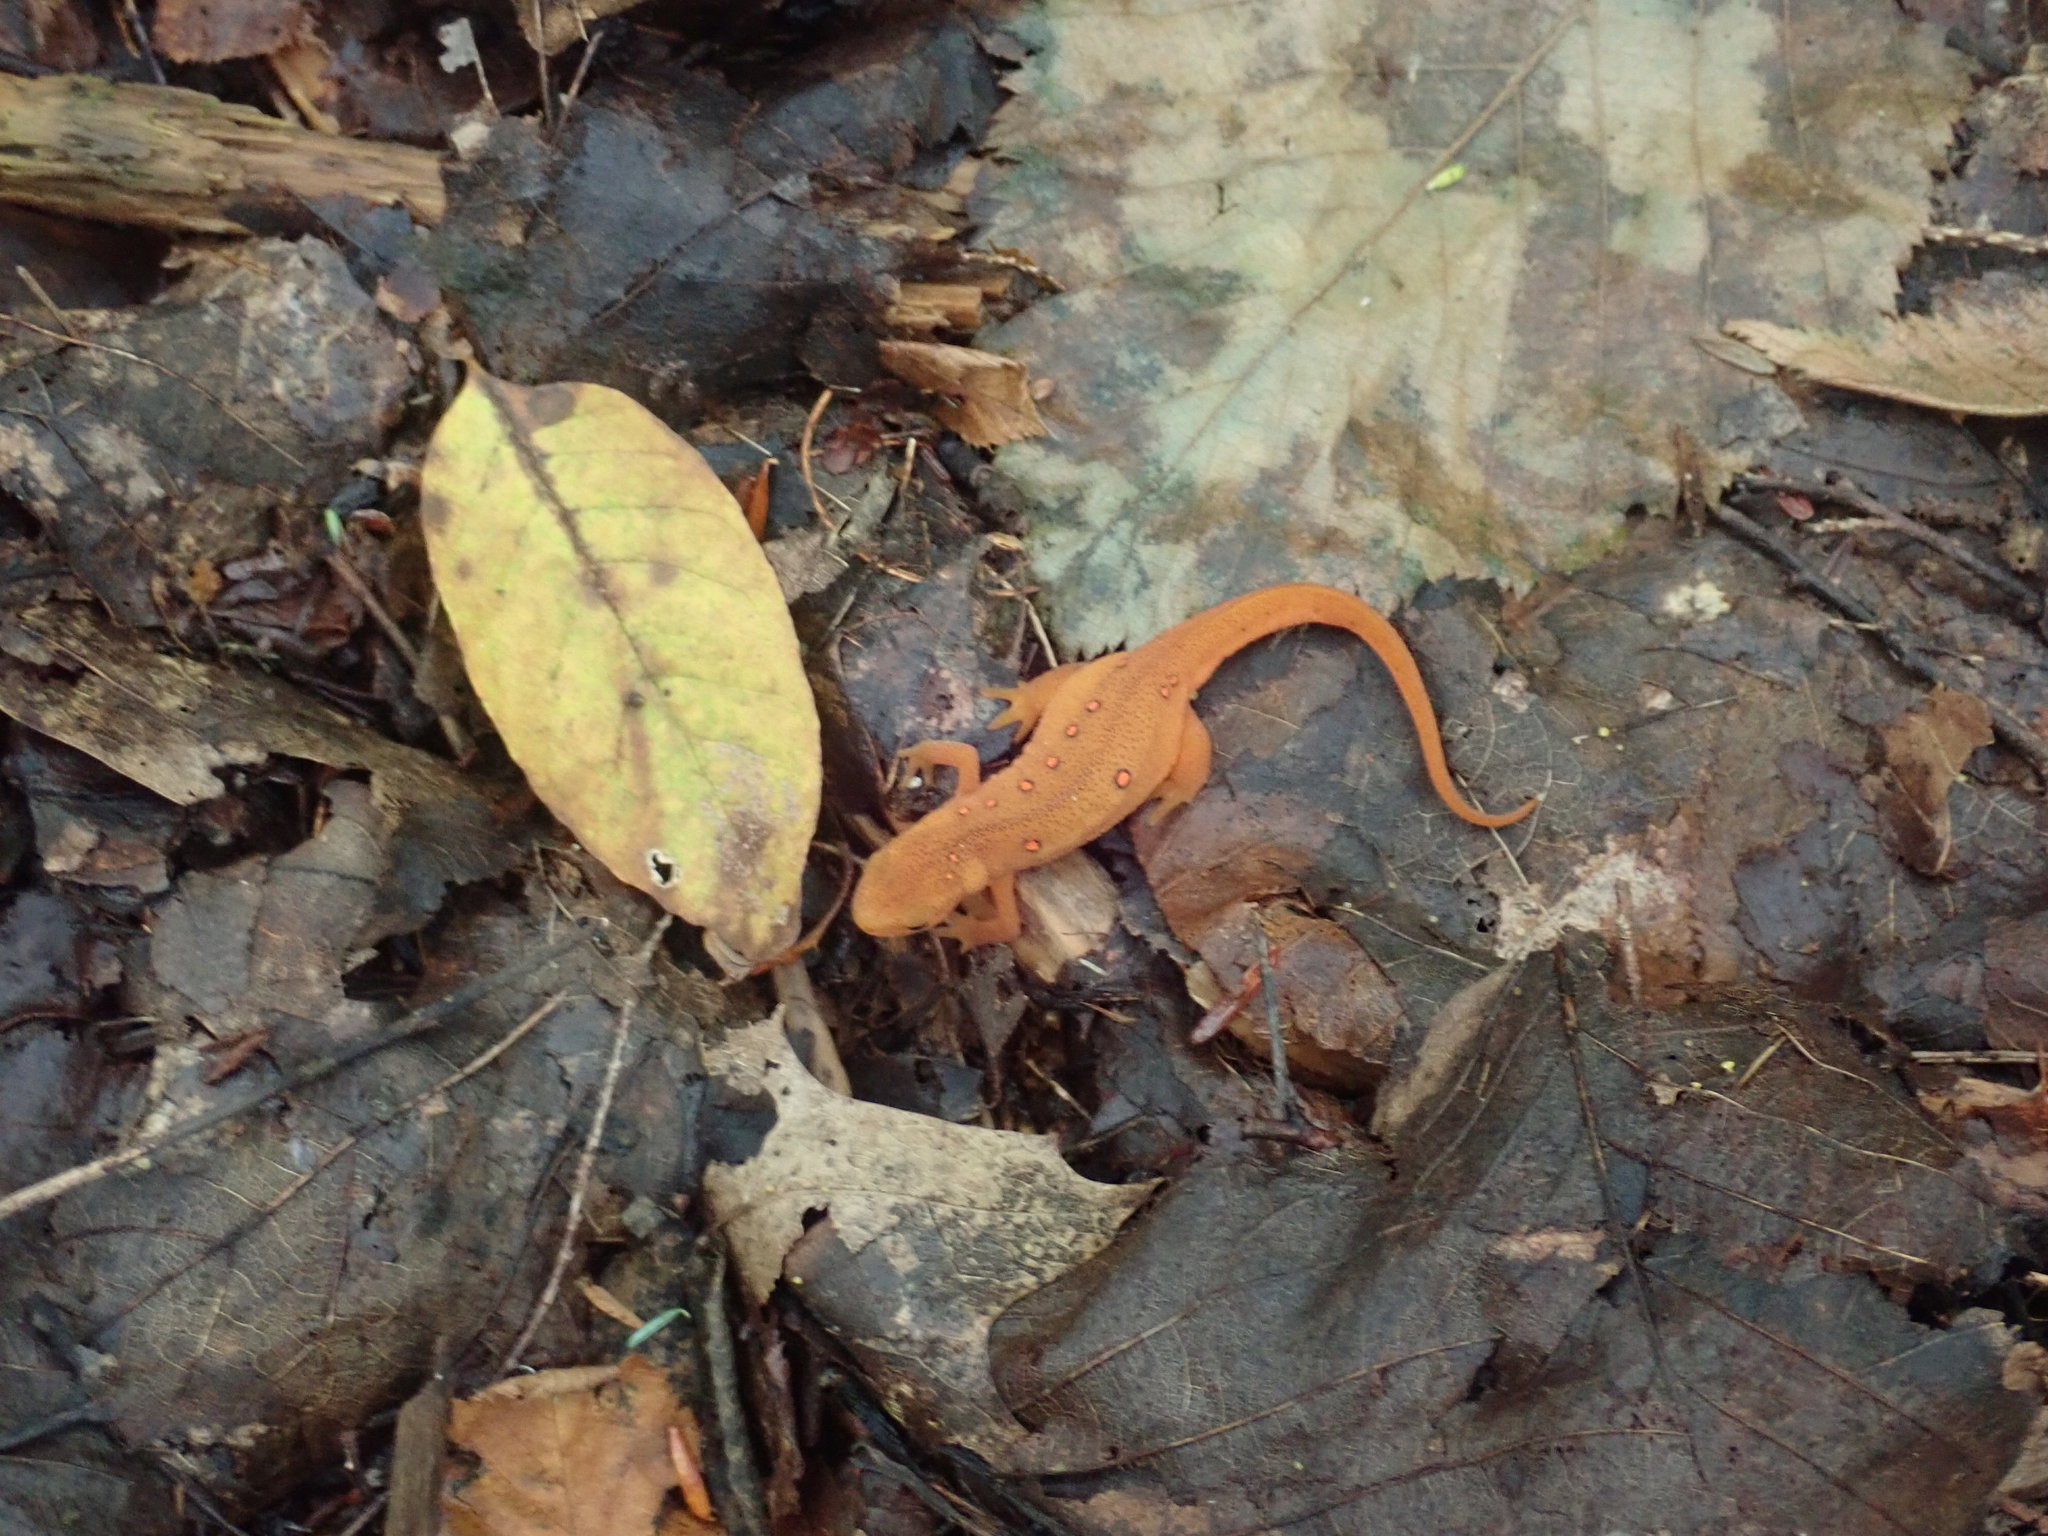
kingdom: Animalia
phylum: Chordata
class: Amphibia
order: Caudata
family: Salamandridae
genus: Notophthalmus
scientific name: Notophthalmus viridescens
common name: Eastern newt
